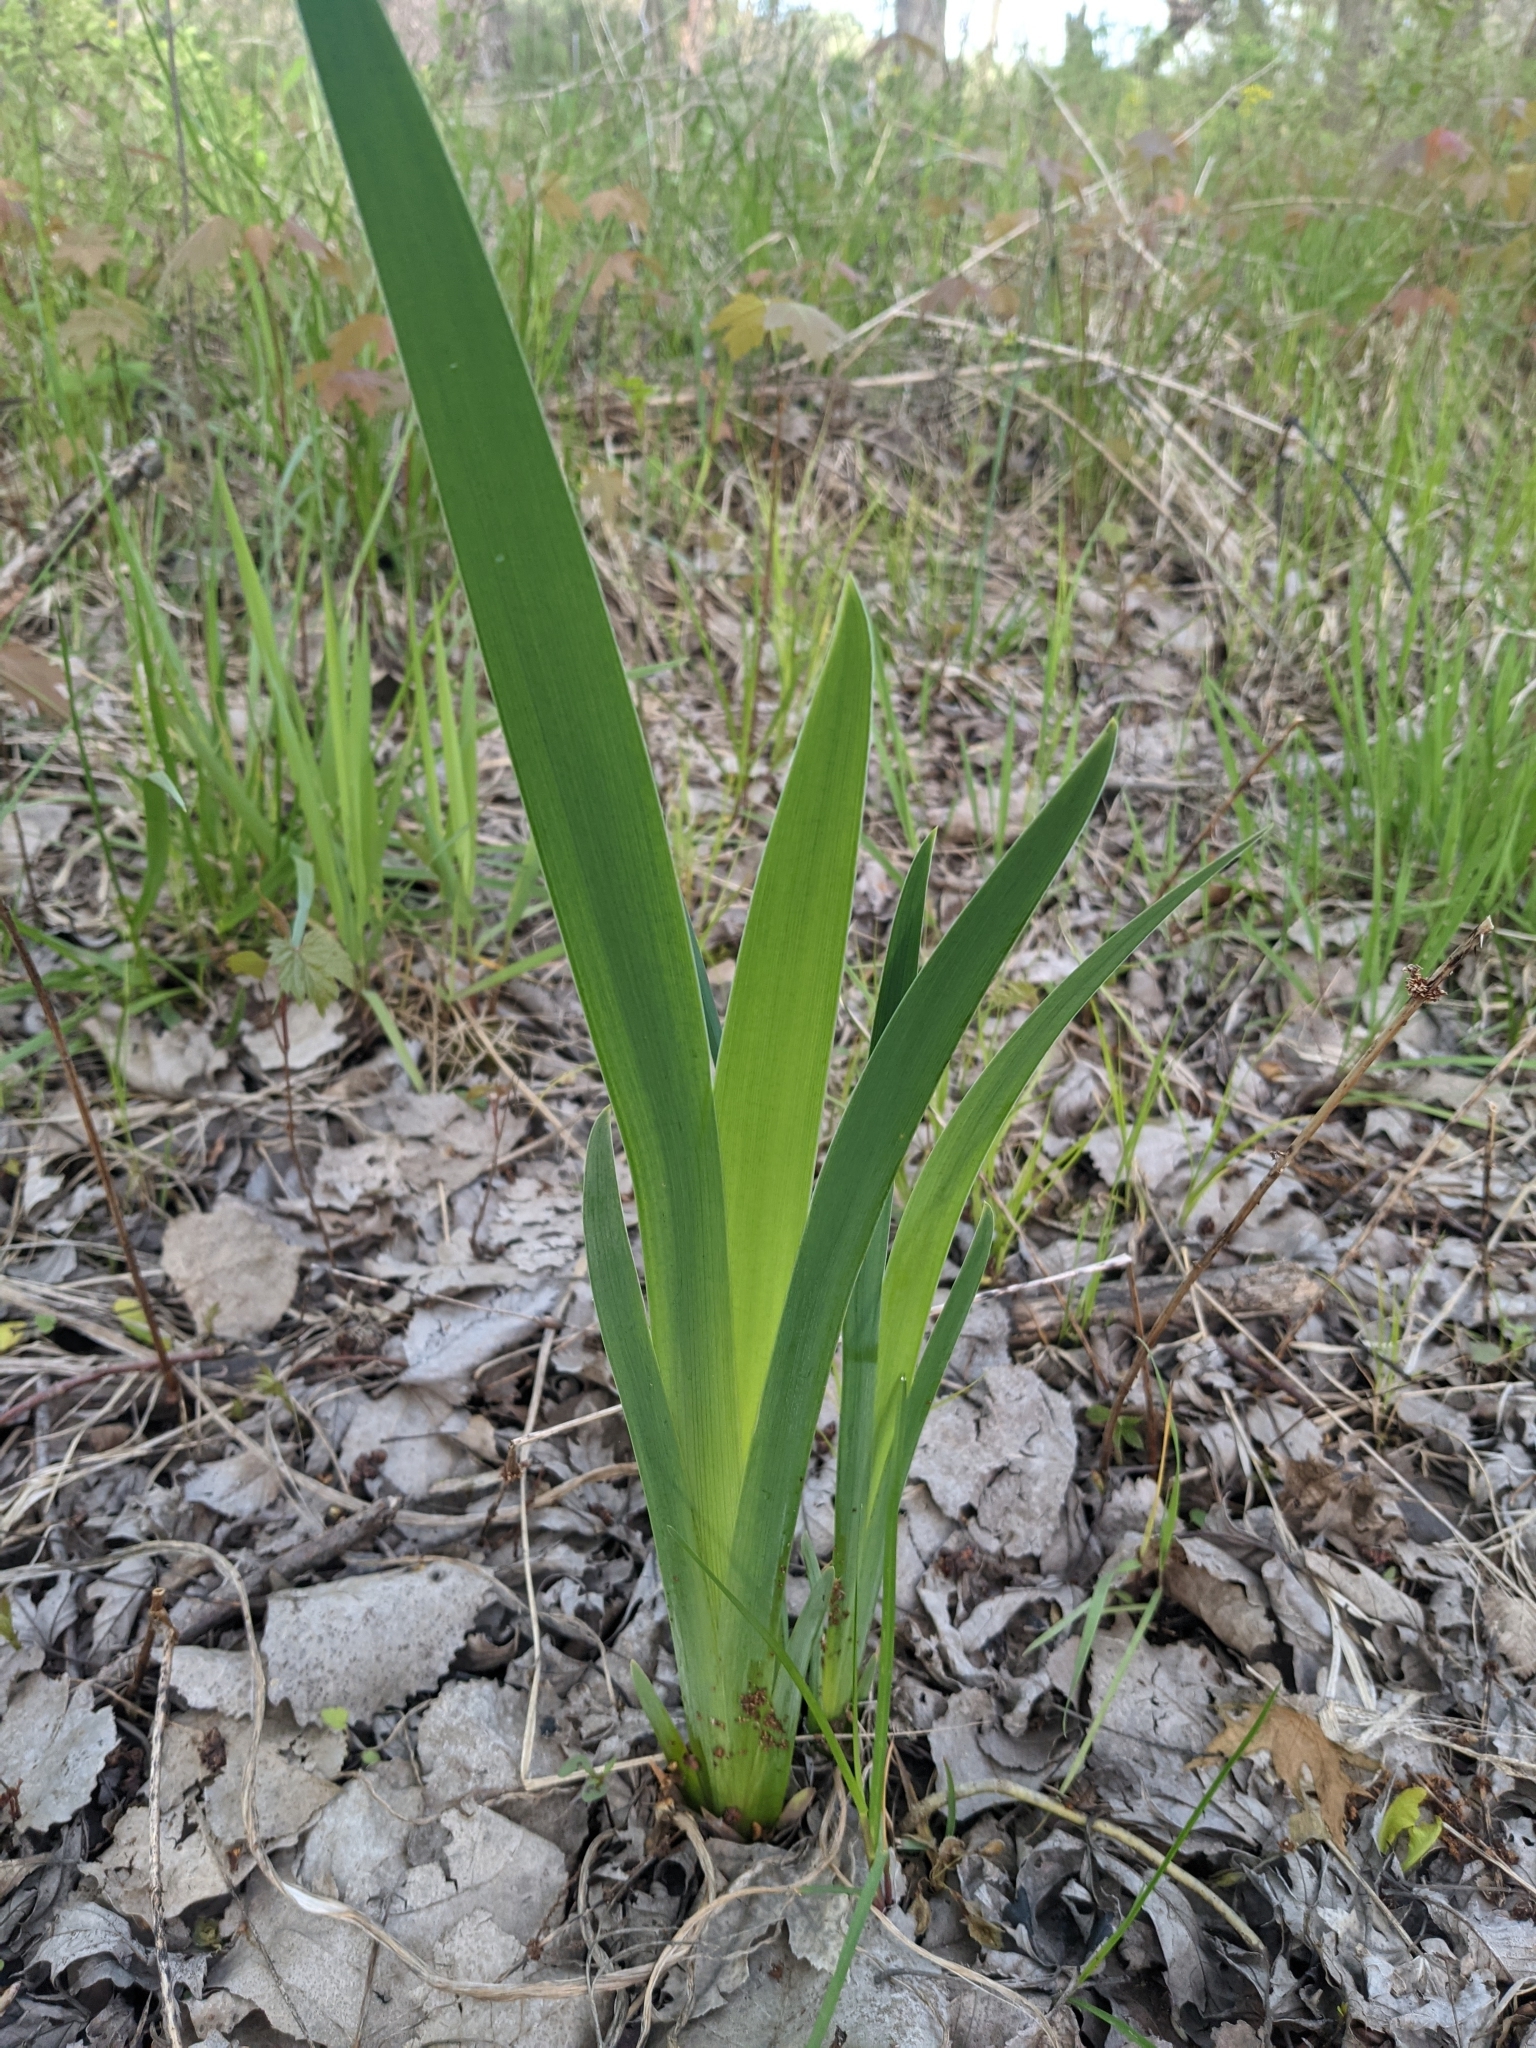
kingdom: Plantae
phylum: Tracheophyta
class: Liliopsida
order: Asparagales
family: Iridaceae
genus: Iris
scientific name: Iris virginica
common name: Southern blue flag
